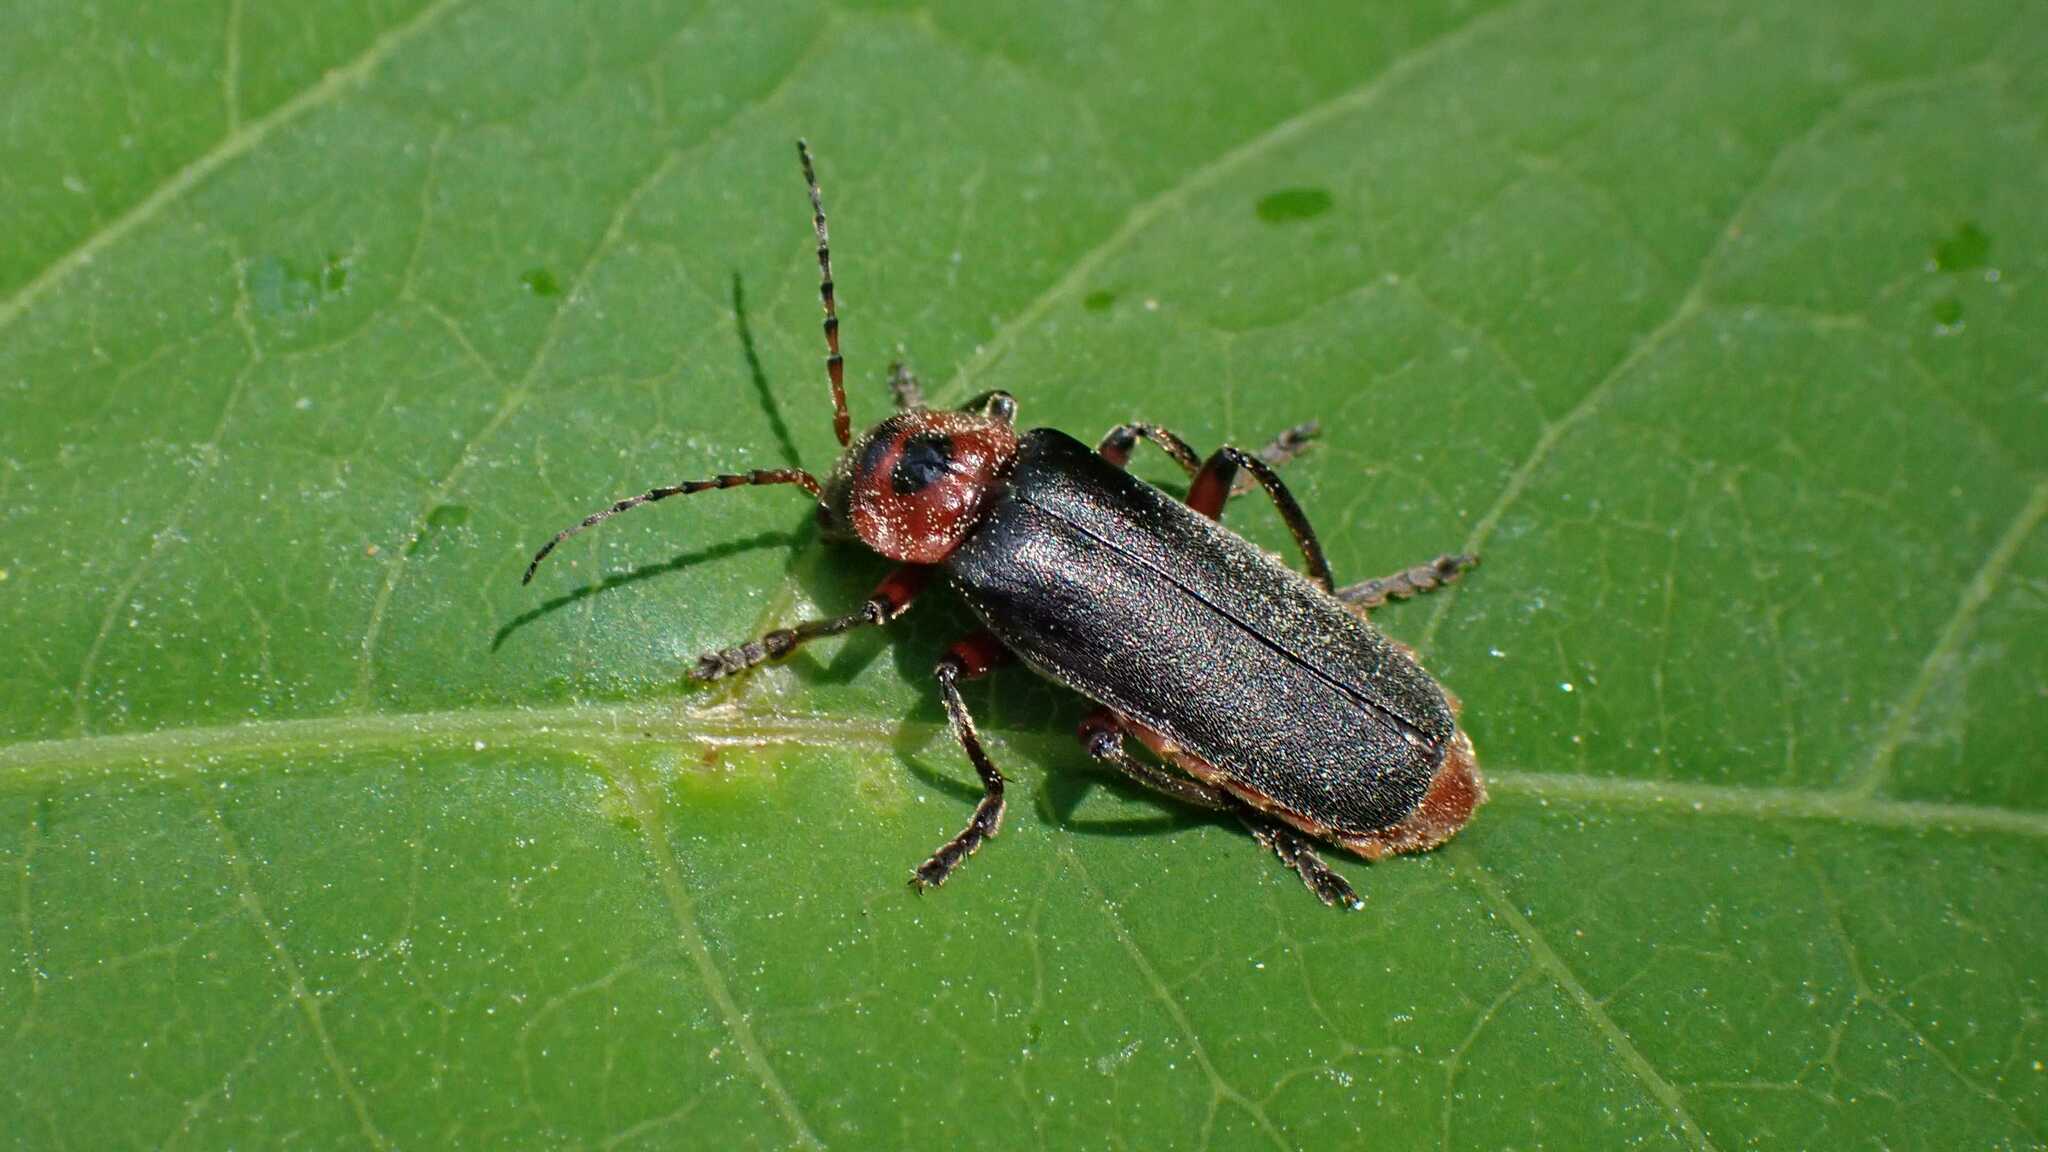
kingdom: Animalia
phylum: Arthropoda
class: Insecta
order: Coleoptera
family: Cantharidae
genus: Cantharis
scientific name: Cantharis rustica
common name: Soldier beetle
